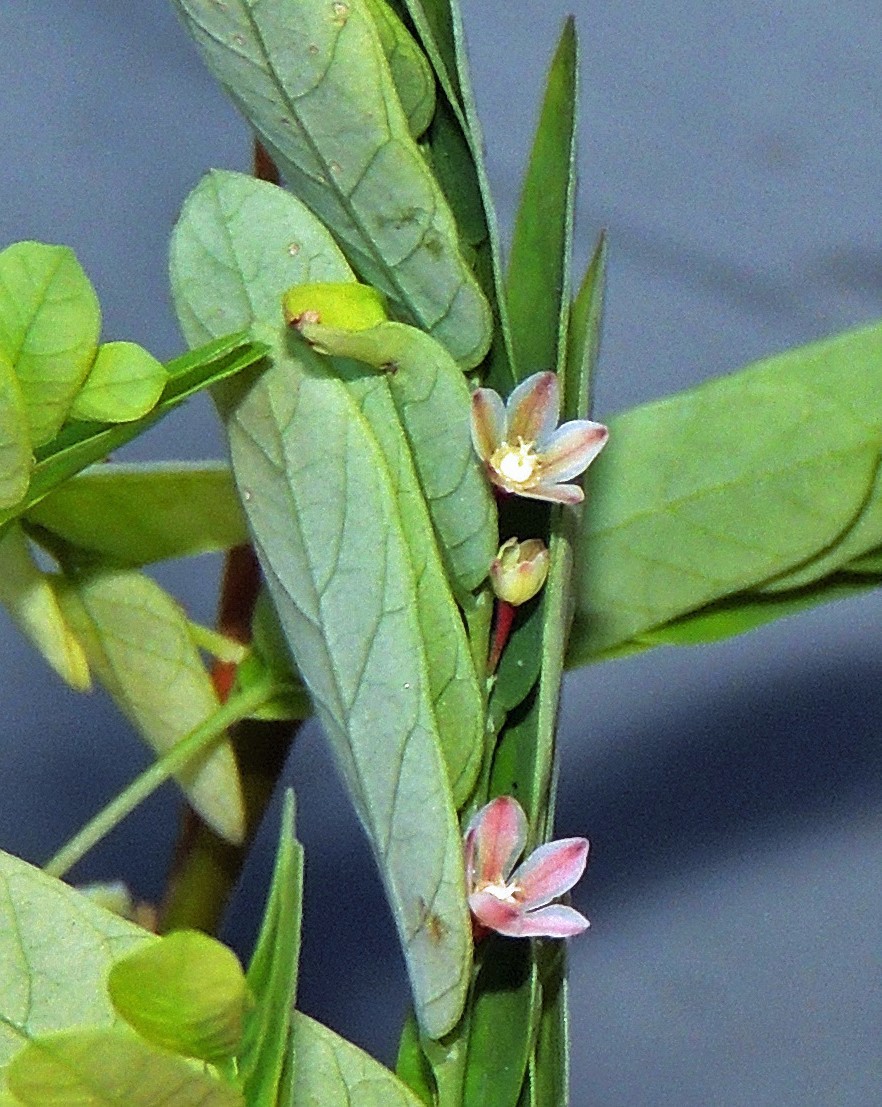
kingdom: Plantae
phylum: Tracheophyta
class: Magnoliopsida
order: Malpighiales
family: Phyllanthaceae
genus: Phyllanthus
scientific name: Phyllanthus niruri
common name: Niruri
